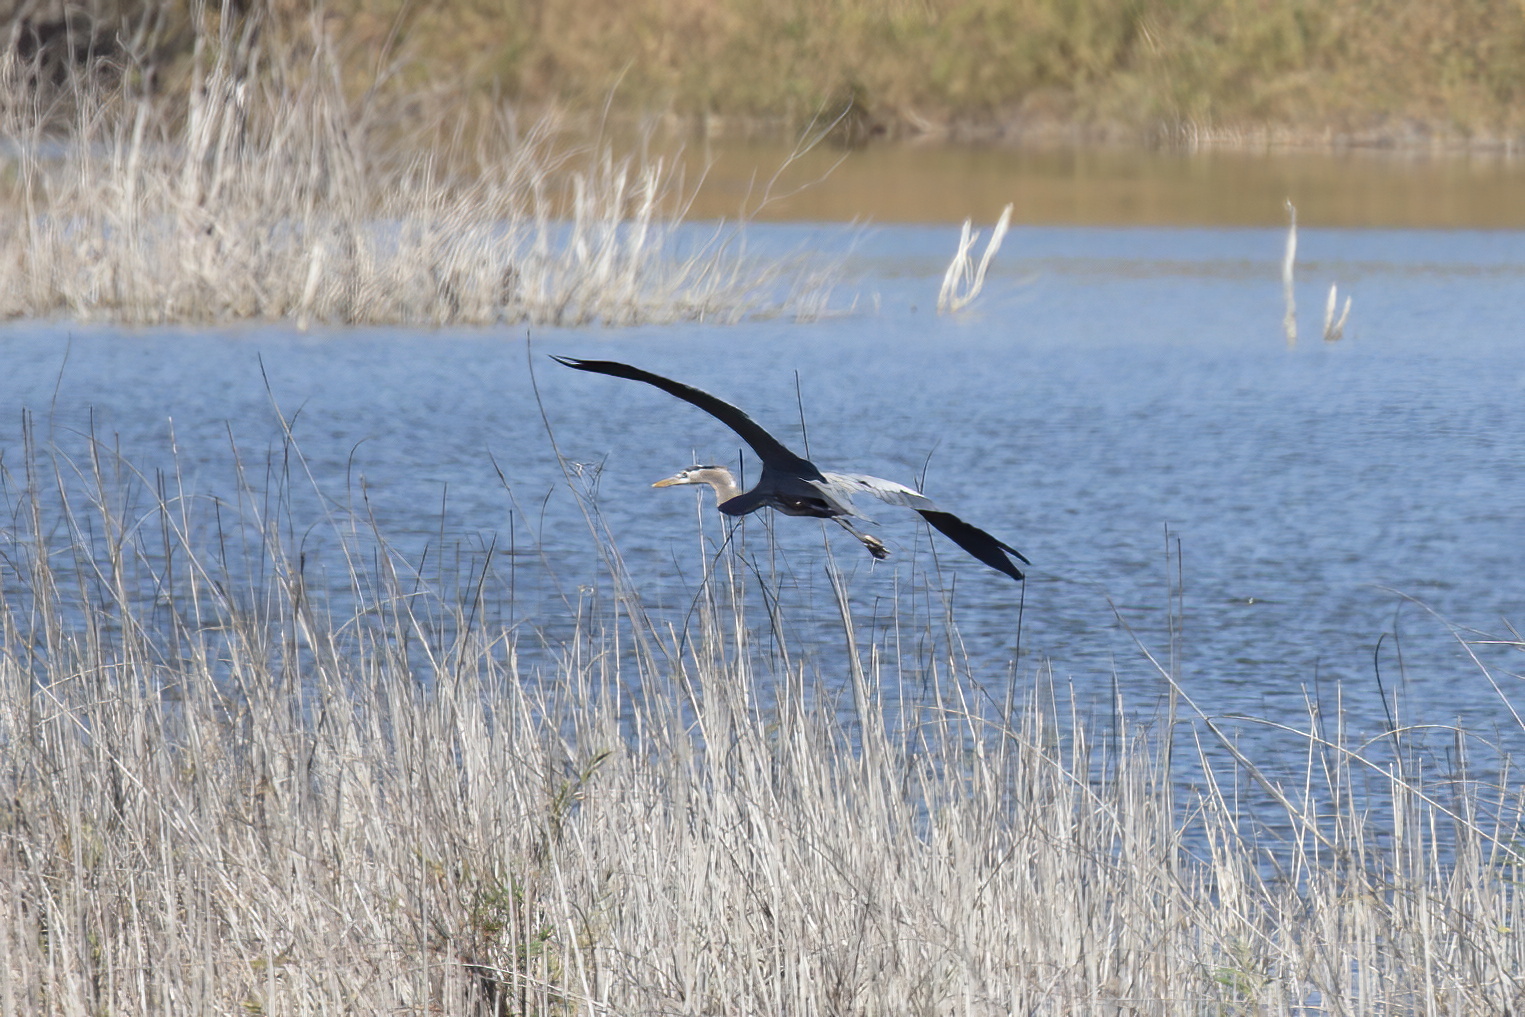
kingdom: Animalia
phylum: Chordata
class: Aves
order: Pelecaniformes
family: Ardeidae
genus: Ardea
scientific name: Ardea herodias
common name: Great blue heron
